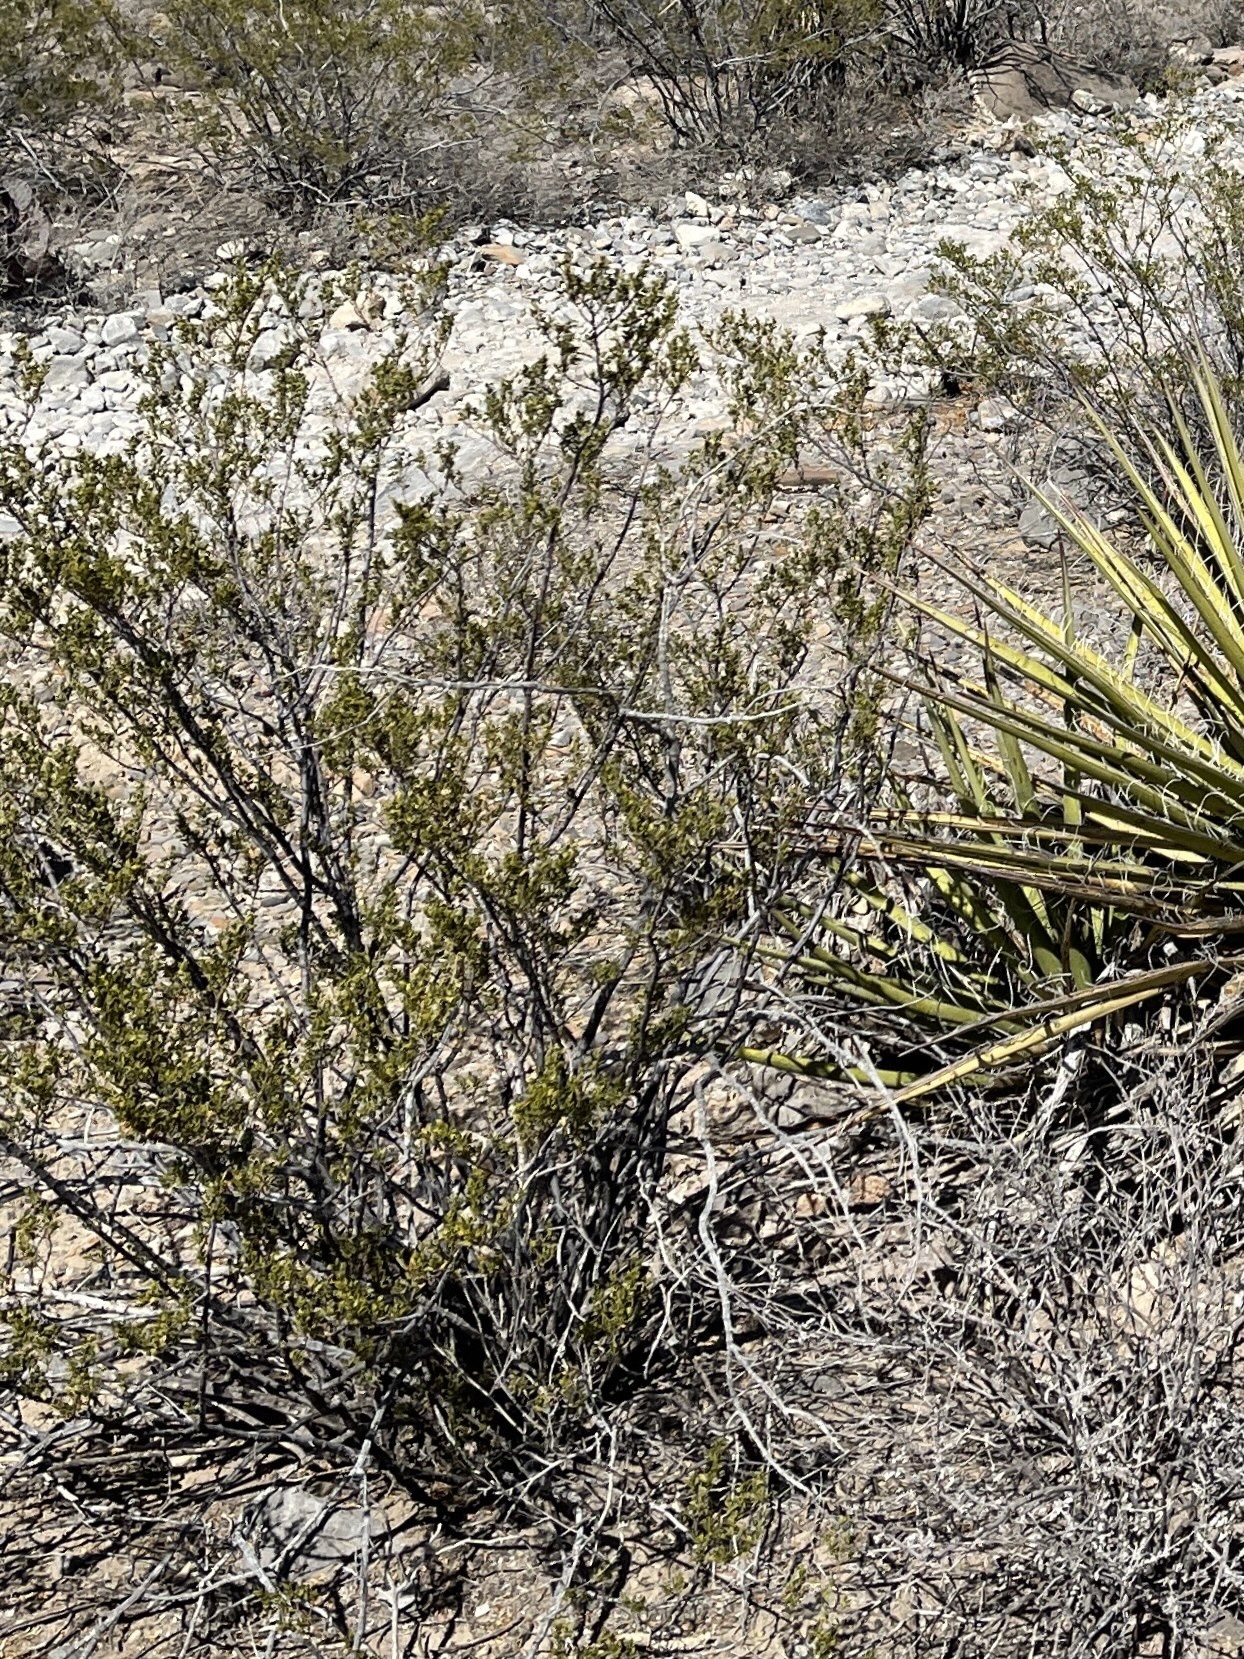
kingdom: Plantae
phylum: Tracheophyta
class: Magnoliopsida
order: Zygophyllales
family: Zygophyllaceae
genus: Larrea
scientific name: Larrea tridentata
